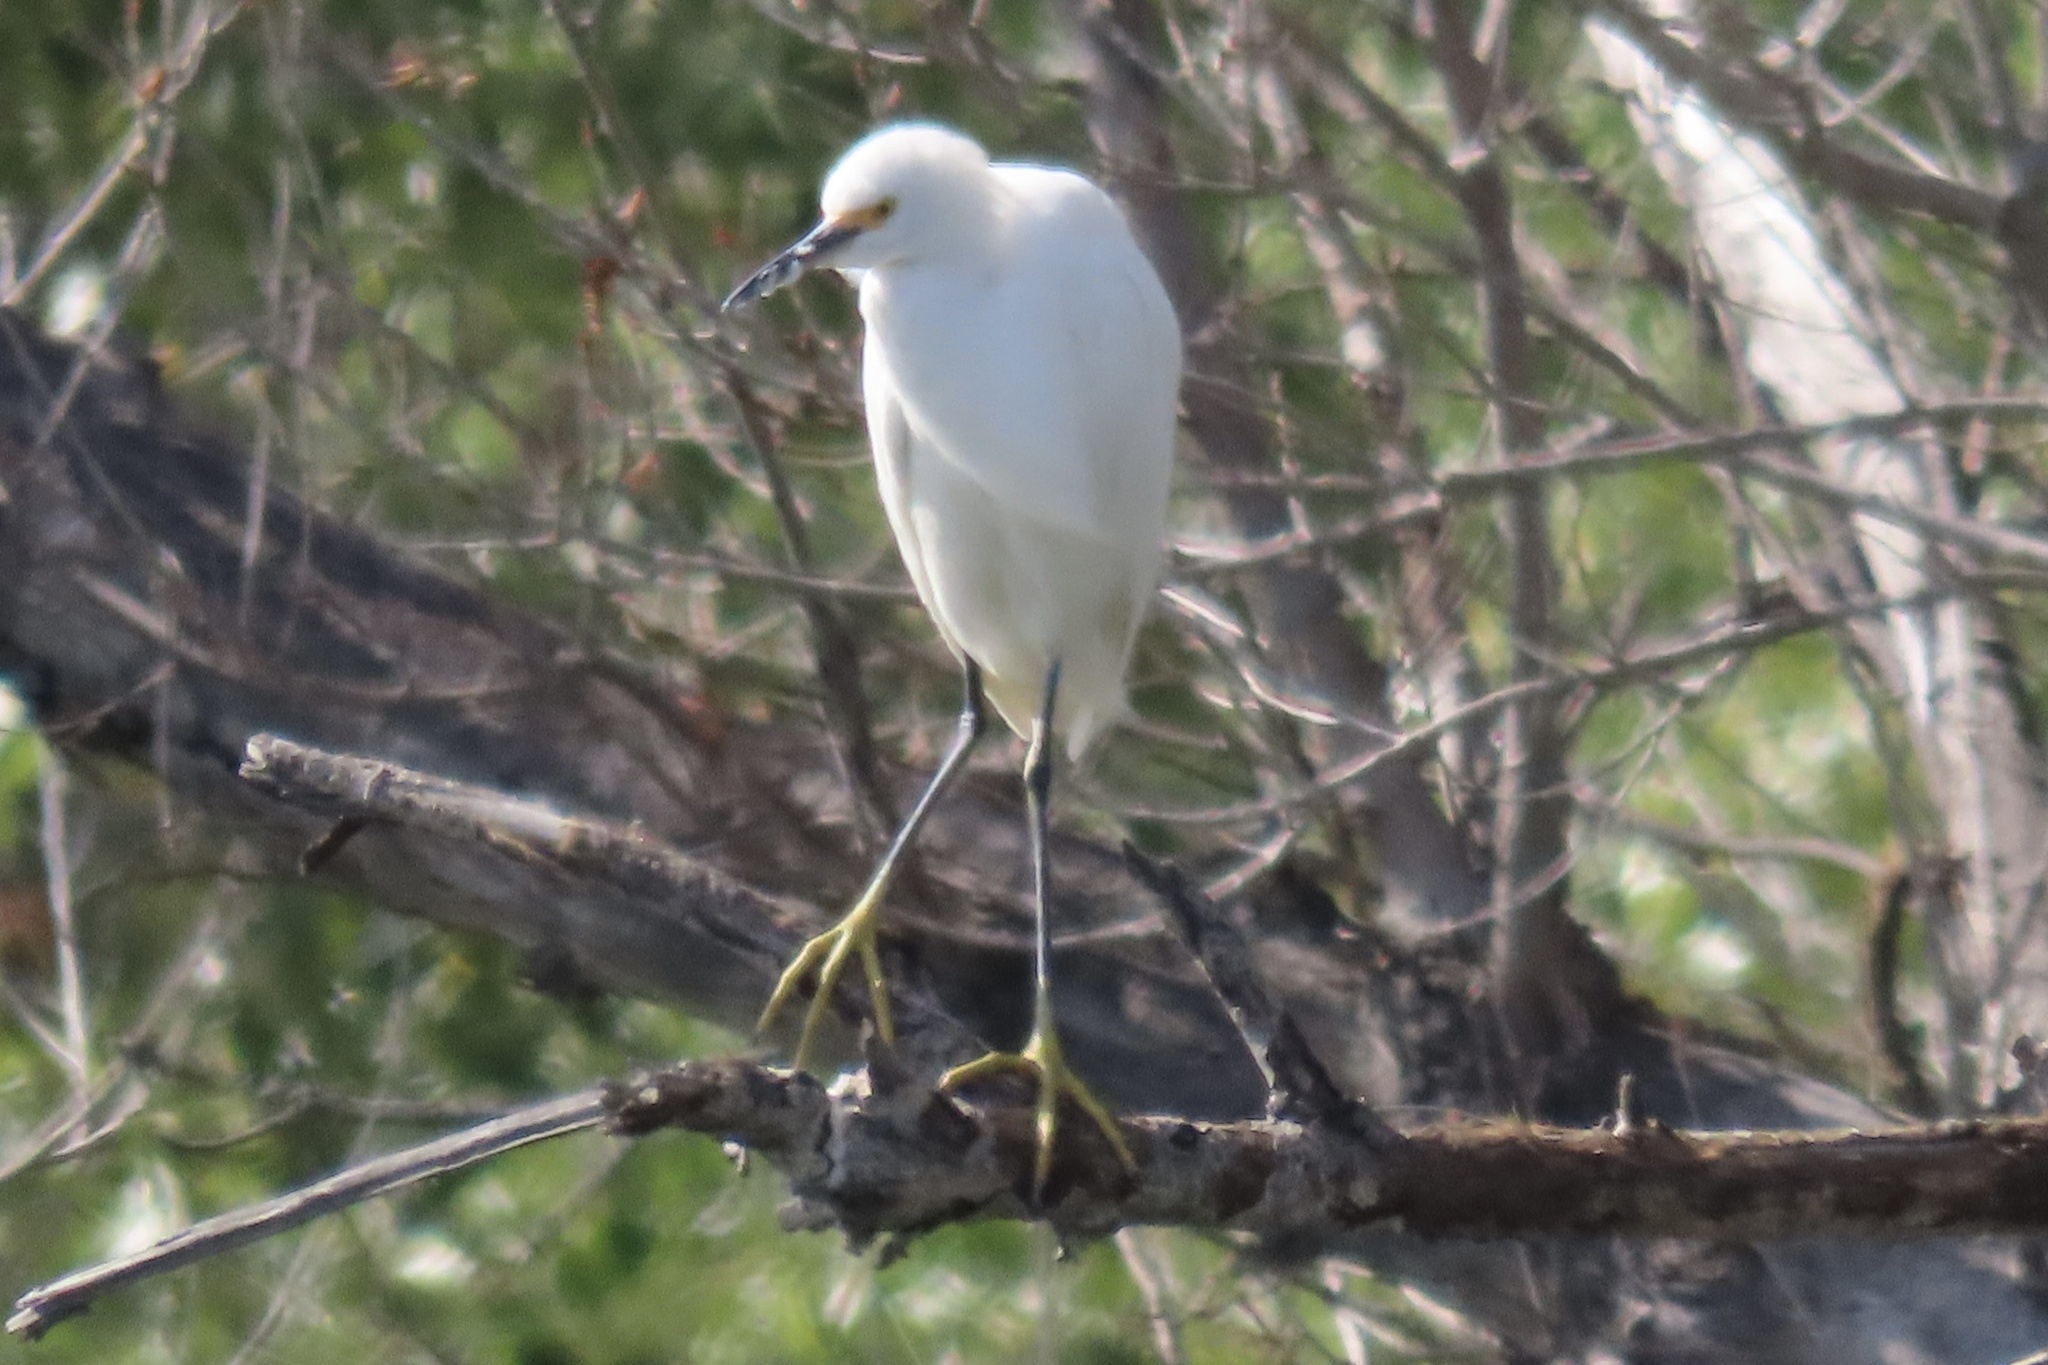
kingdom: Animalia
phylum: Chordata
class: Aves
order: Pelecaniformes
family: Ardeidae
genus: Egretta
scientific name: Egretta thula
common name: Snowy egret
